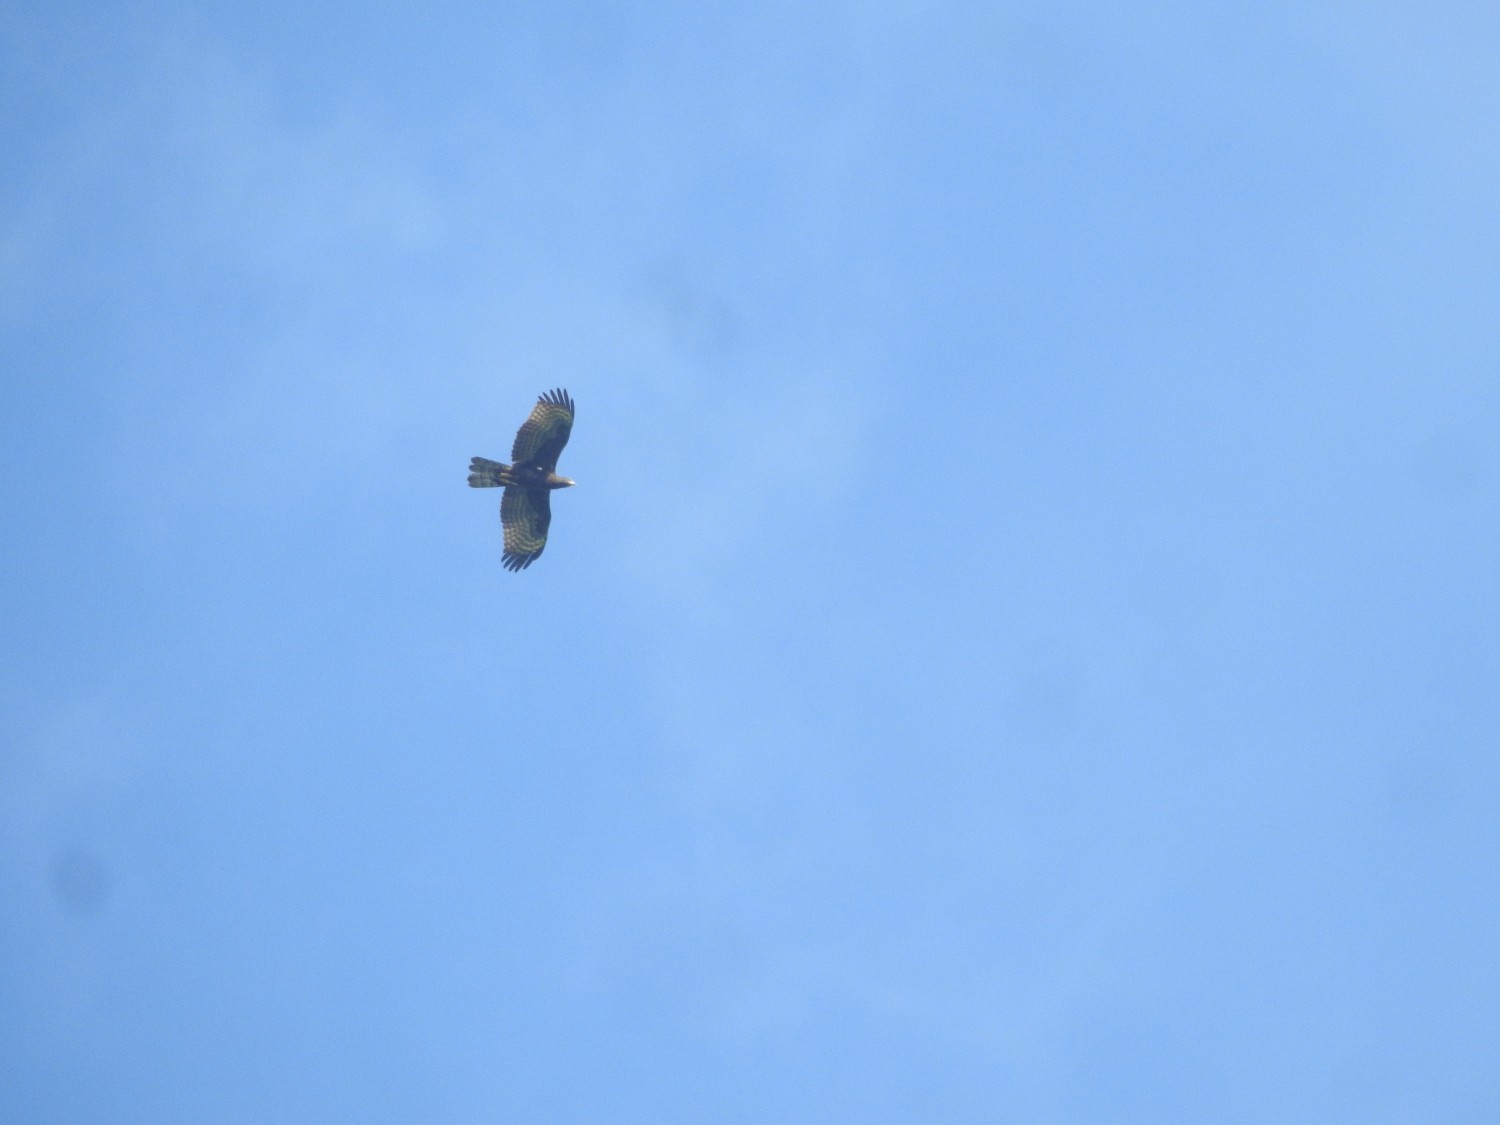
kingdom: Animalia
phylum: Chordata
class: Aves
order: Accipitriformes
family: Accipitridae
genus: Pernis
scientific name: Pernis ptilorhynchus
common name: Crested honey buzzard
